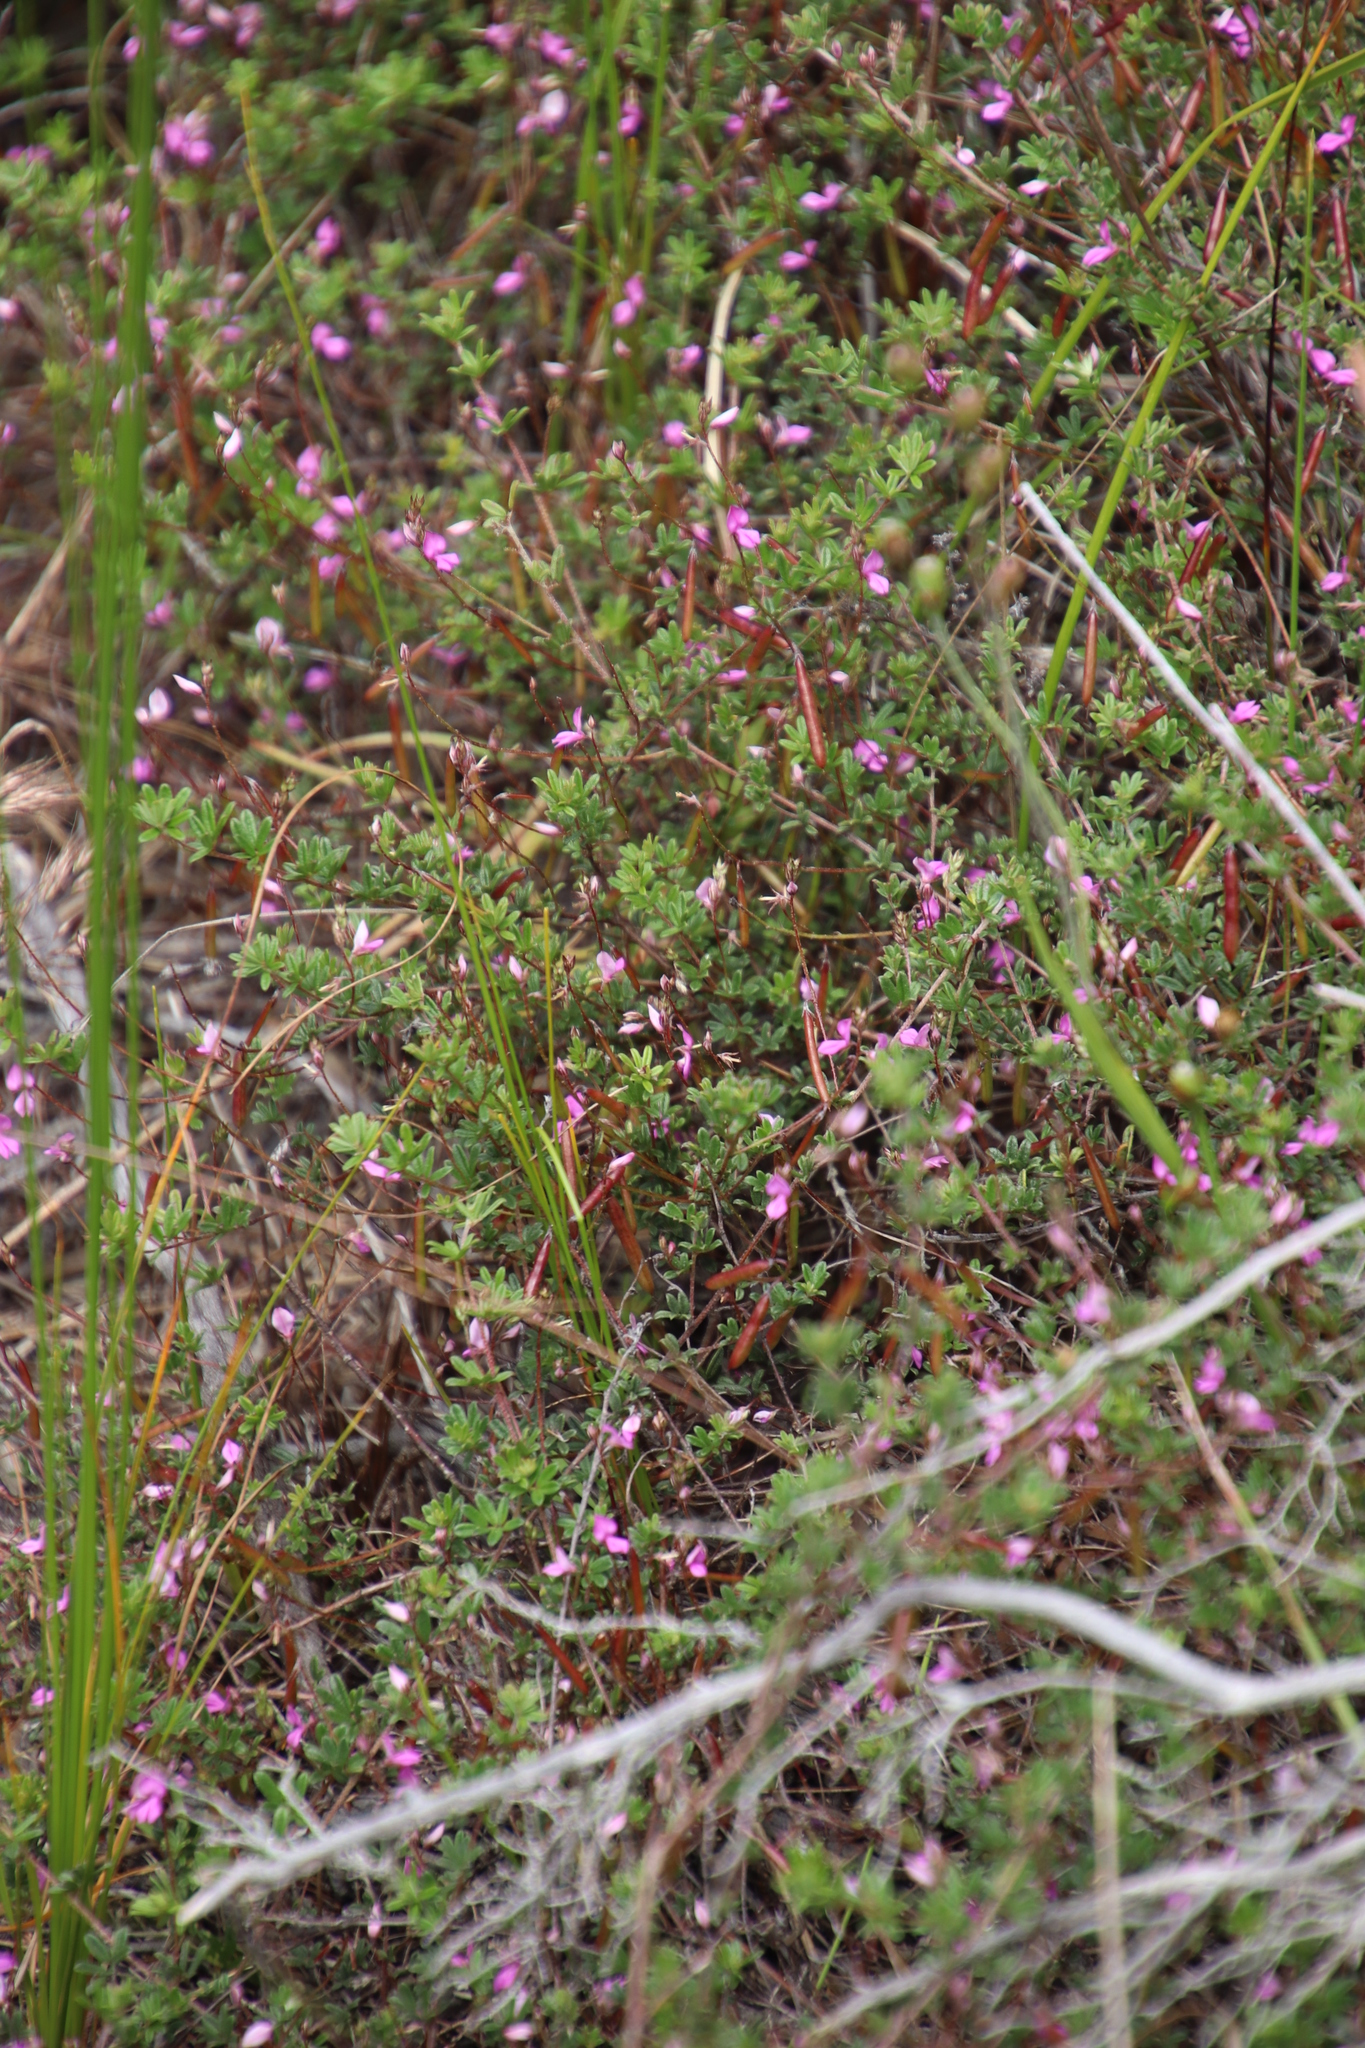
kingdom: Plantae
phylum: Tracheophyta
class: Magnoliopsida
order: Fabales
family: Fabaceae
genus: Indigofera
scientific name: Indigofera angustifolia
